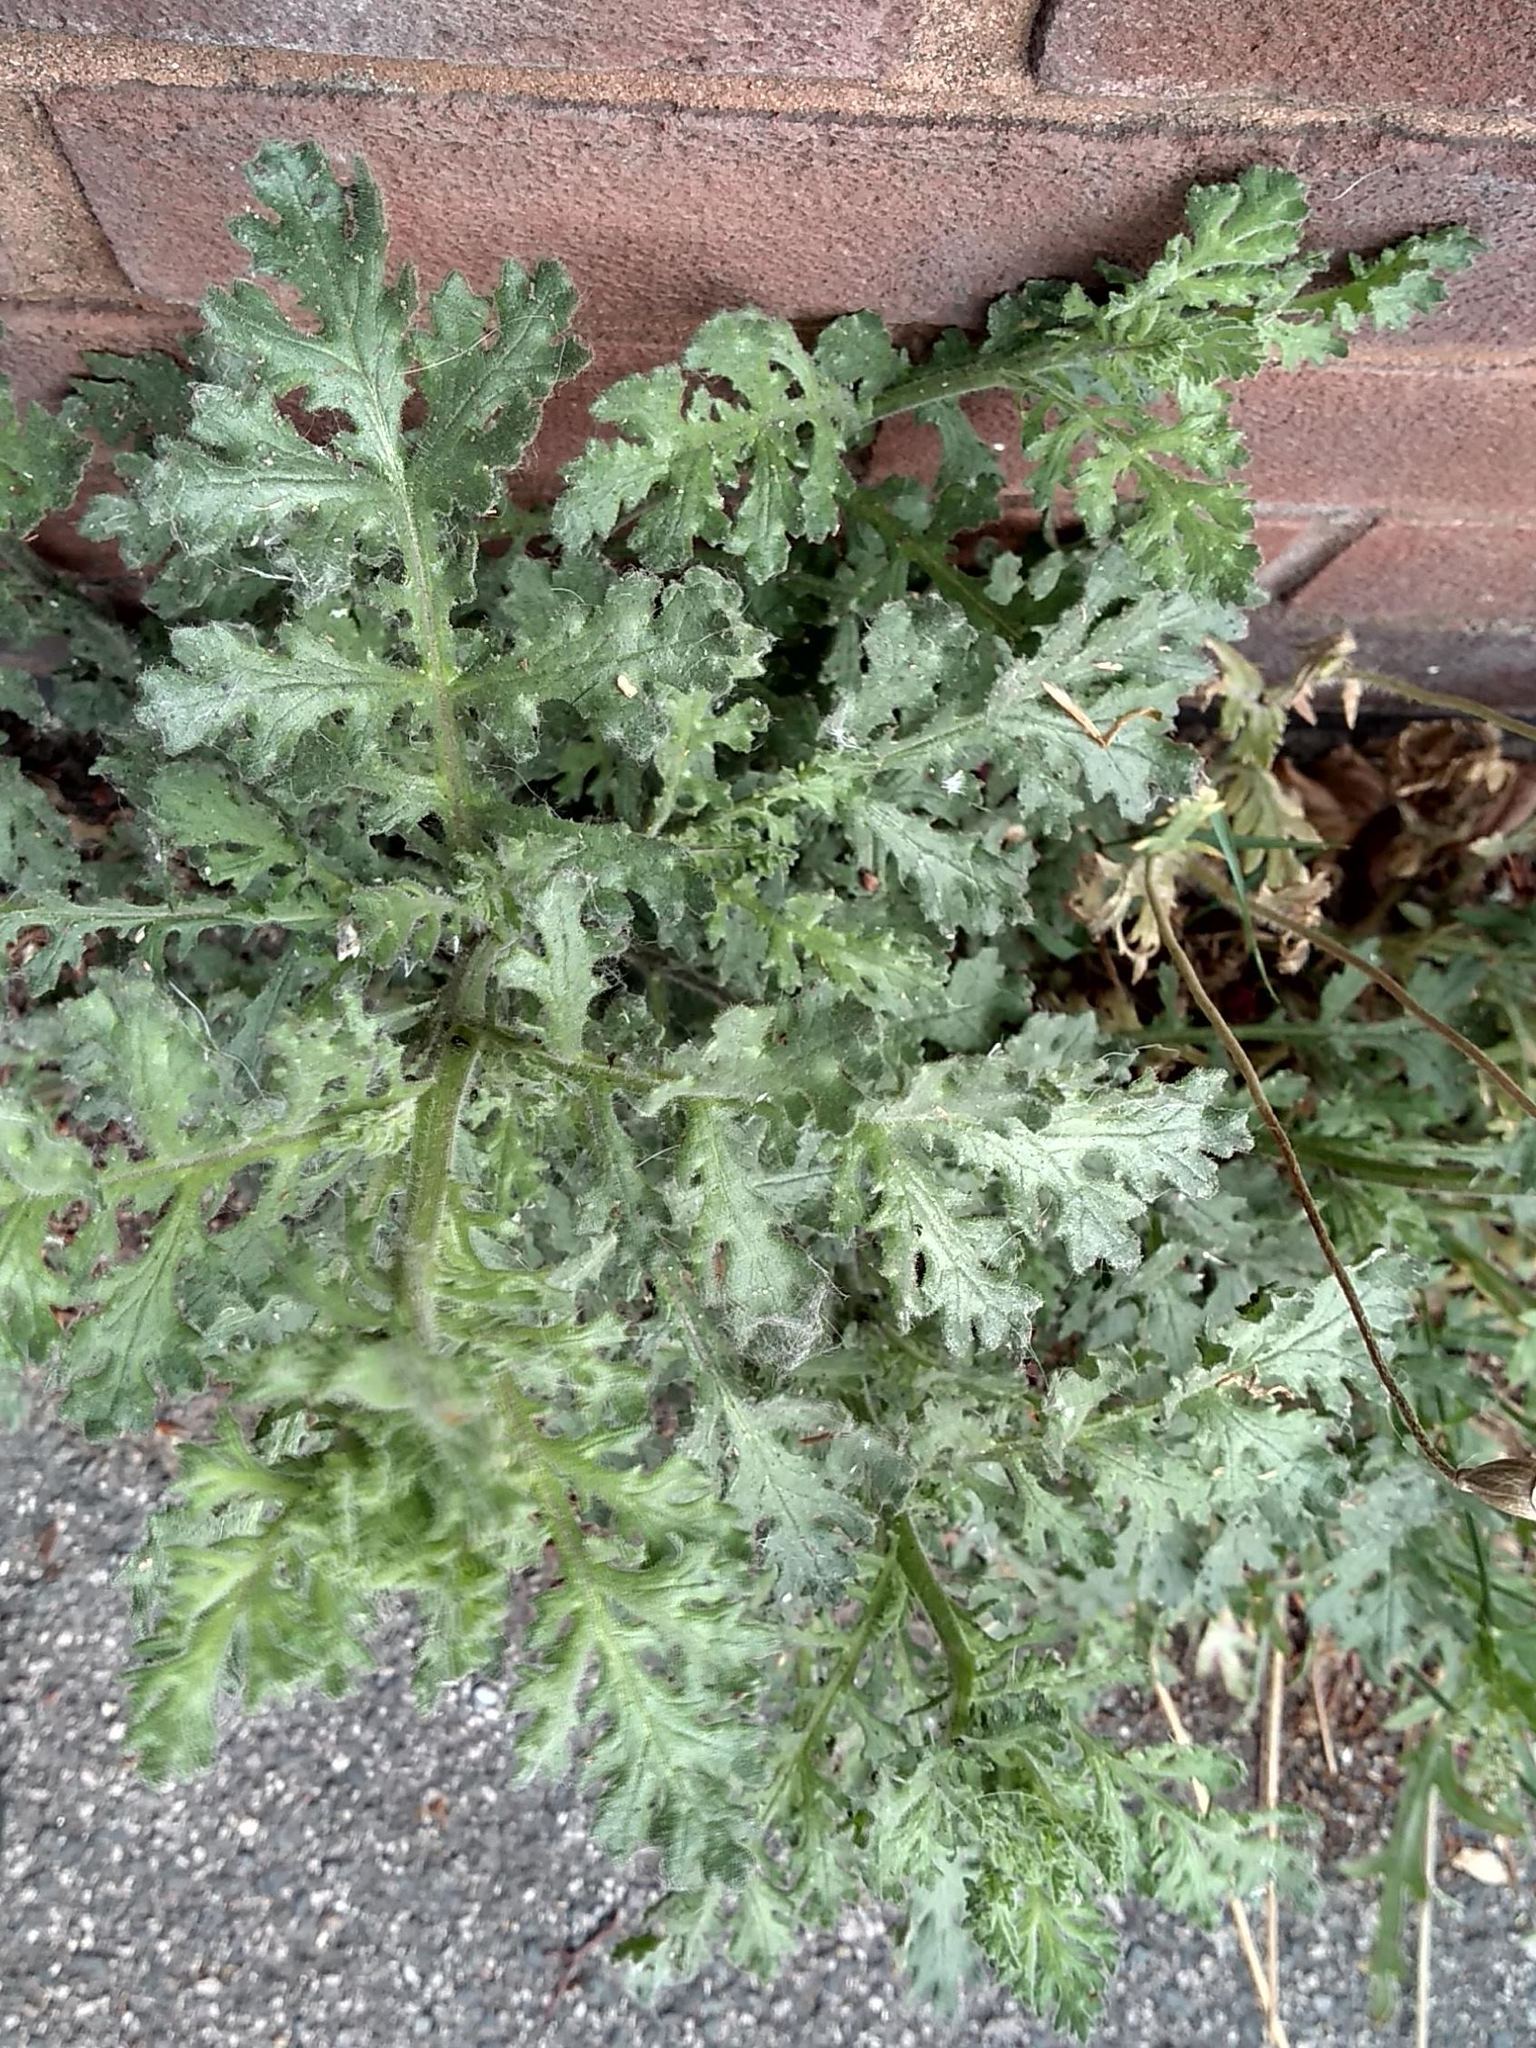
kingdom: Plantae
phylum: Tracheophyta
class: Magnoliopsida
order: Asterales
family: Asteraceae
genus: Senecio
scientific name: Senecio viscosus
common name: Sticky groundsel
